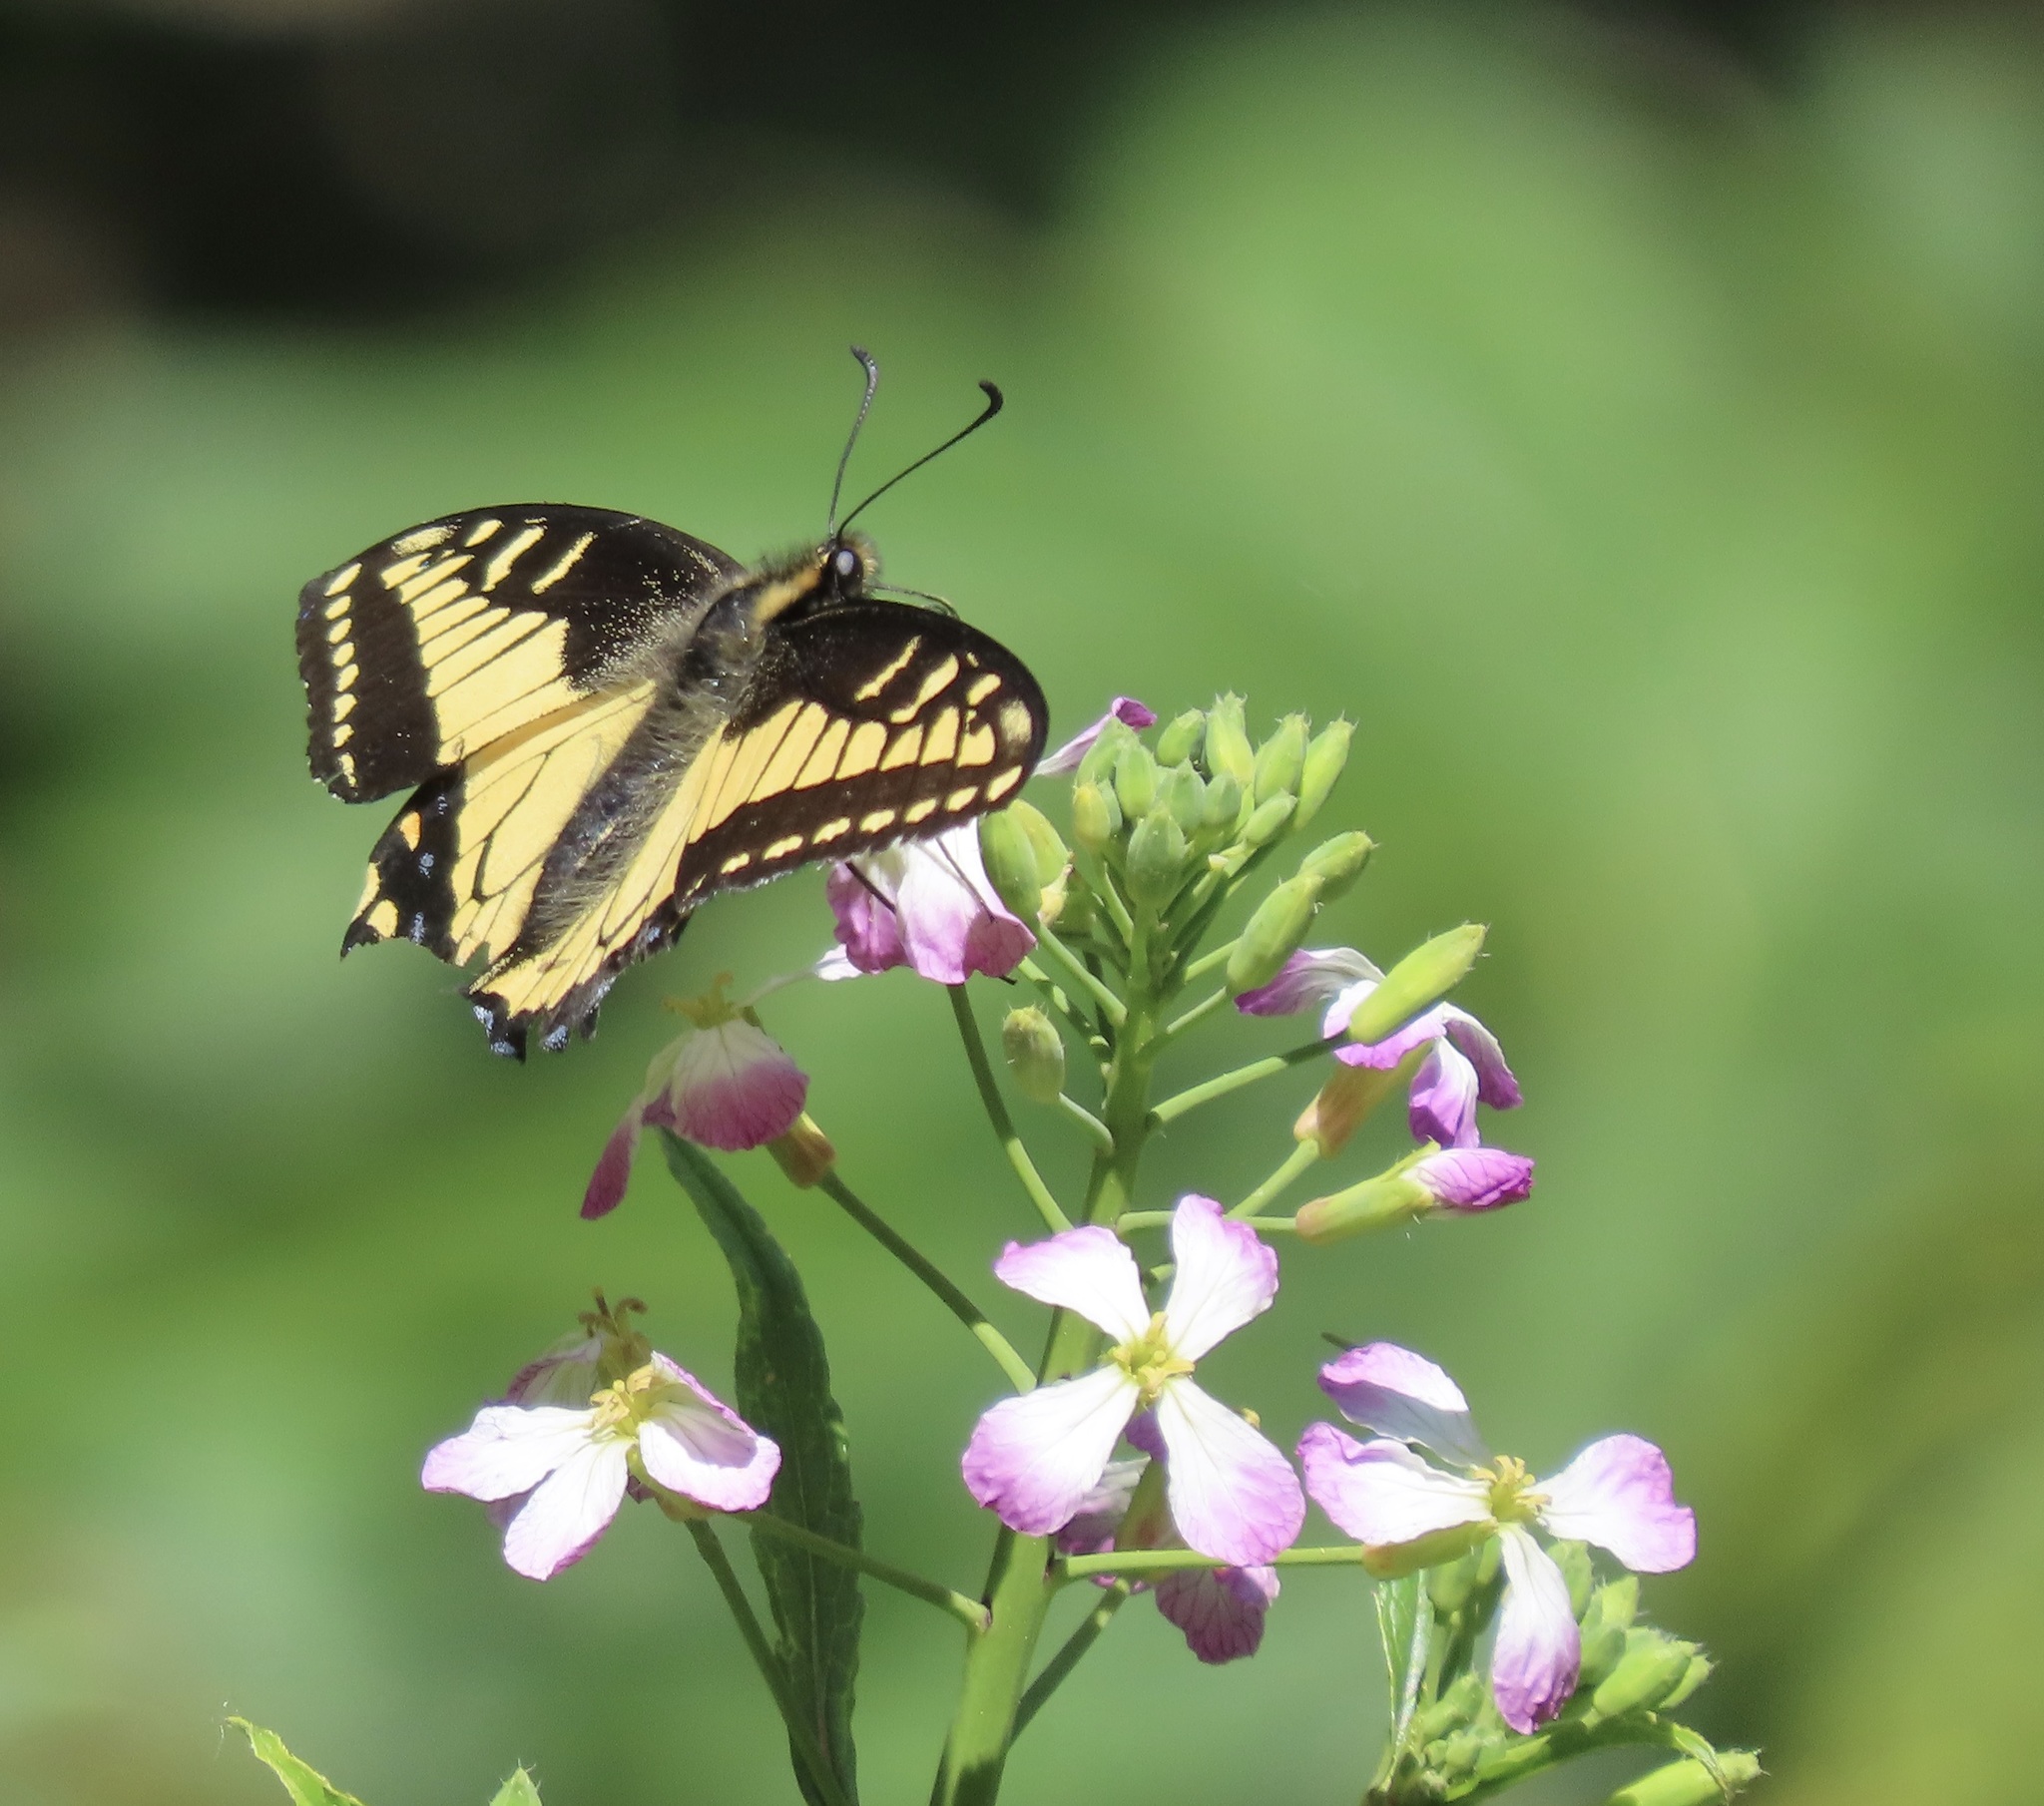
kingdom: Animalia
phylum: Arthropoda
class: Insecta
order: Lepidoptera
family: Papilionidae
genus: Papilio
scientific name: Papilio zelicaon
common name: Anise swallowtail
